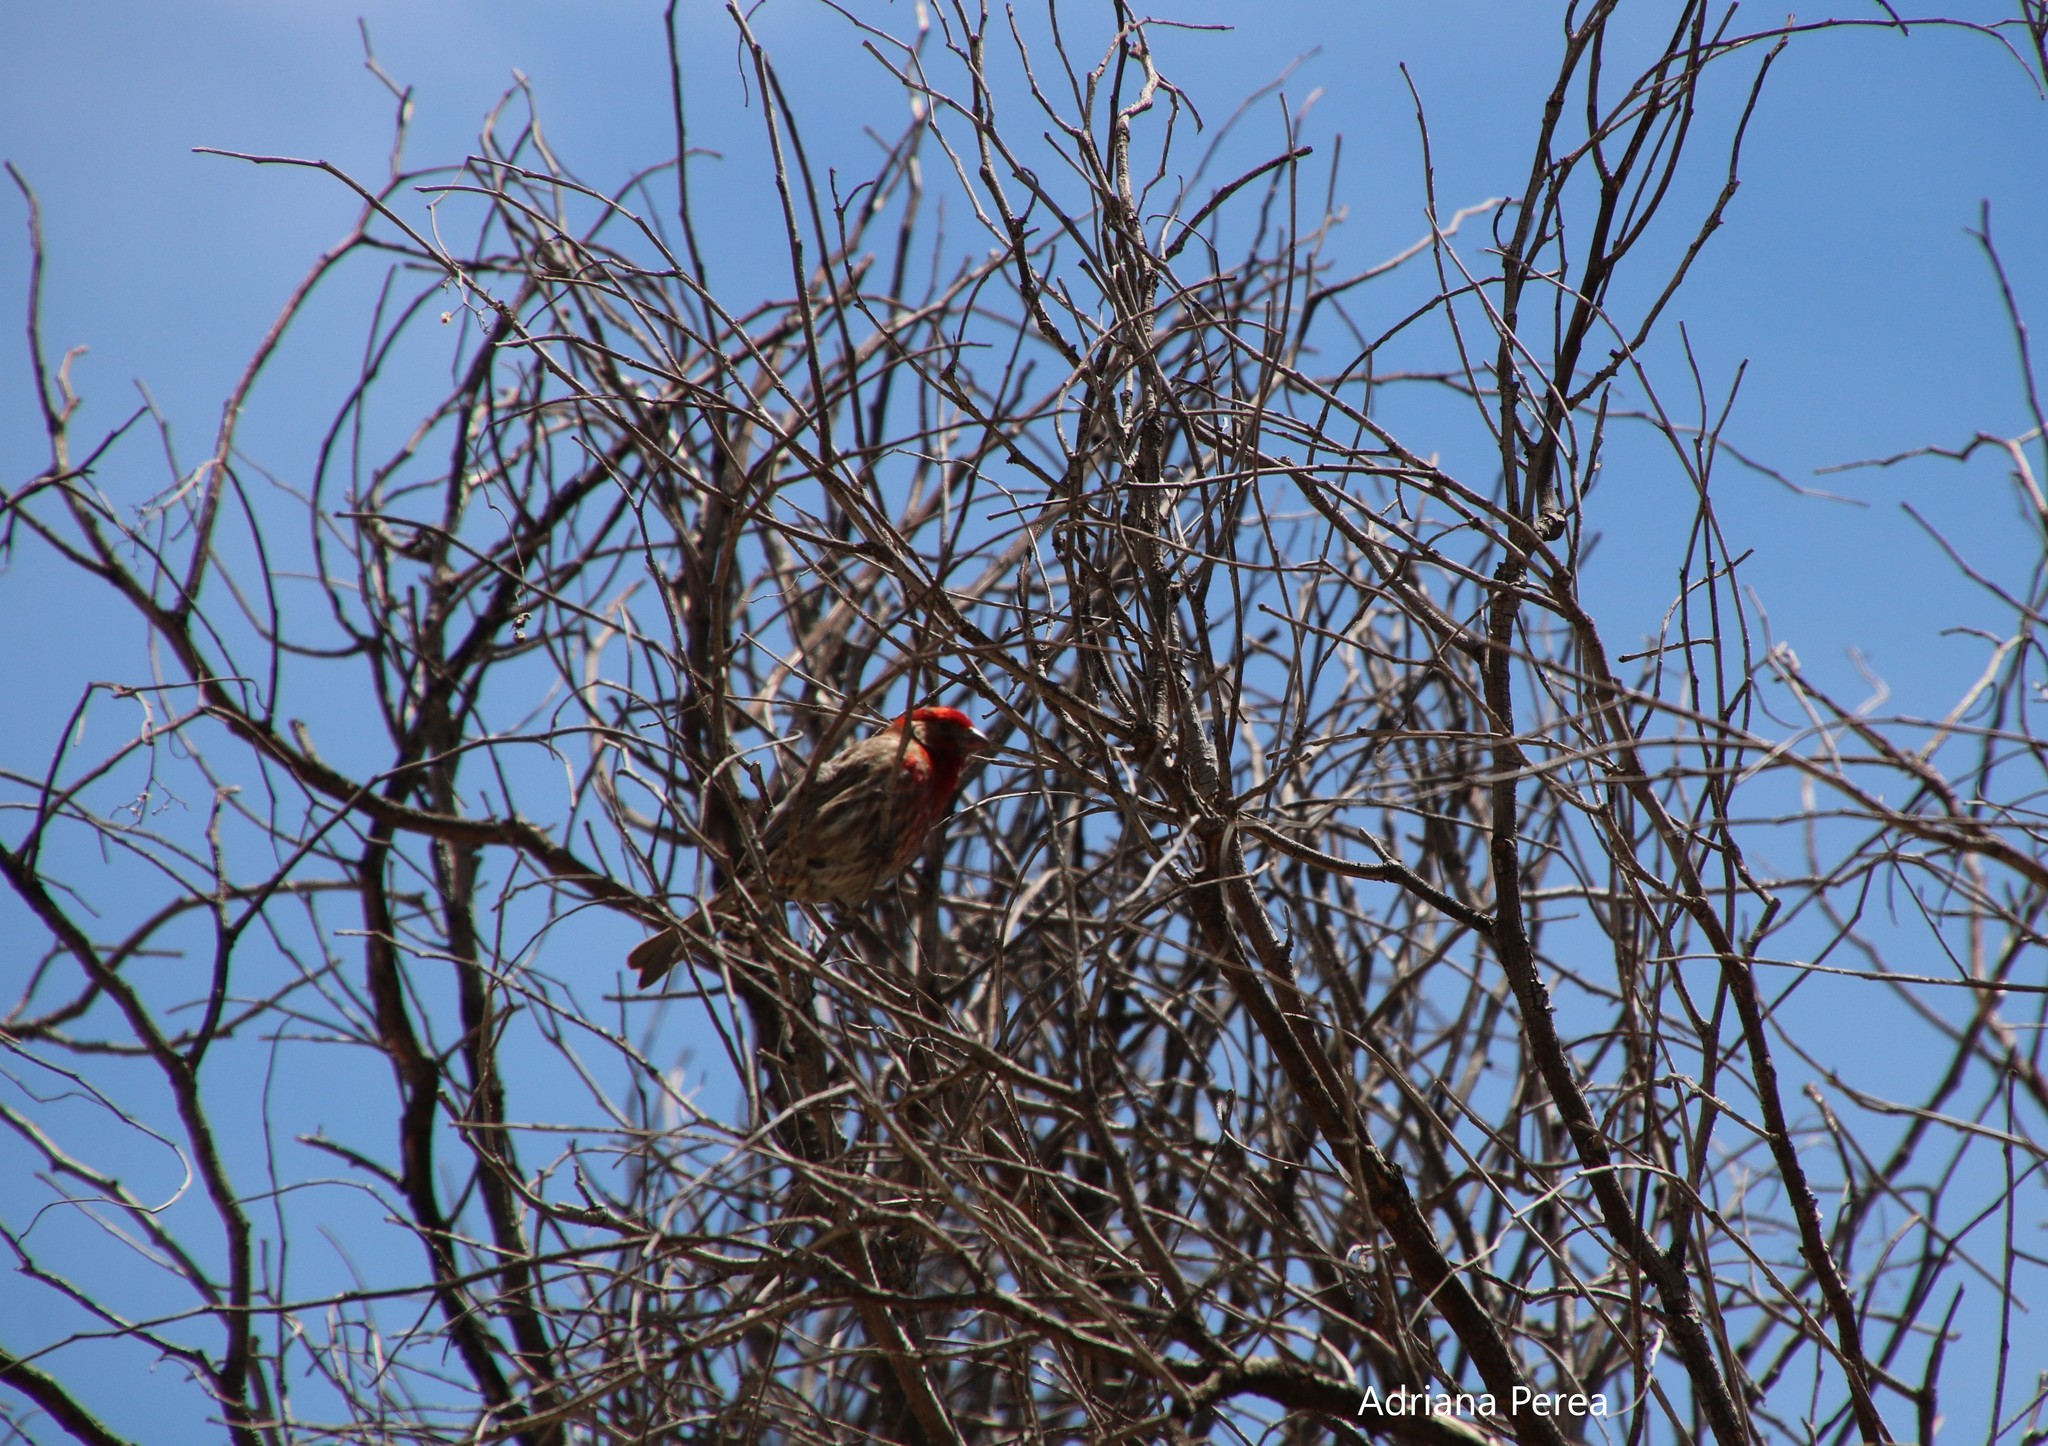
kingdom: Animalia
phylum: Chordata
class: Aves
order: Passeriformes
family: Fringillidae
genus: Haemorhous
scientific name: Haemorhous mexicanus
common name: House finch
